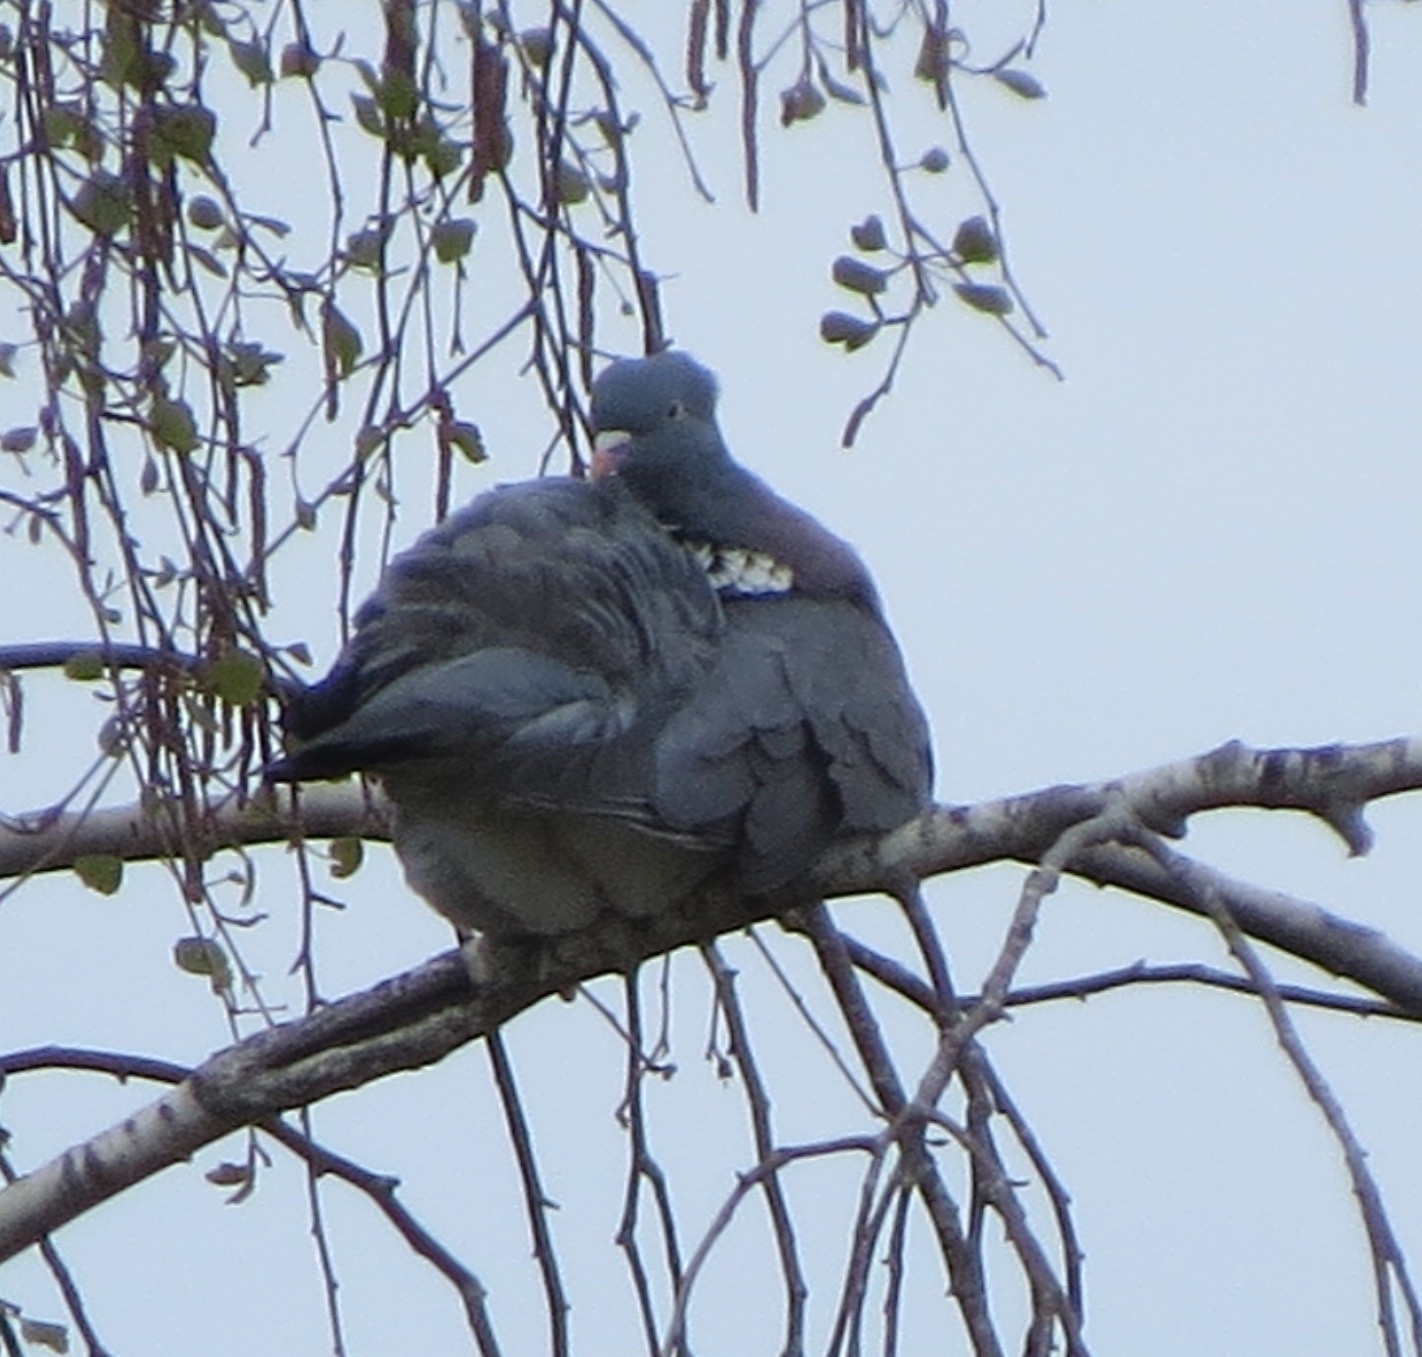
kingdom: Animalia
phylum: Chordata
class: Aves
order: Columbiformes
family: Columbidae
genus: Columba
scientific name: Columba palumbus
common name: Common wood pigeon
